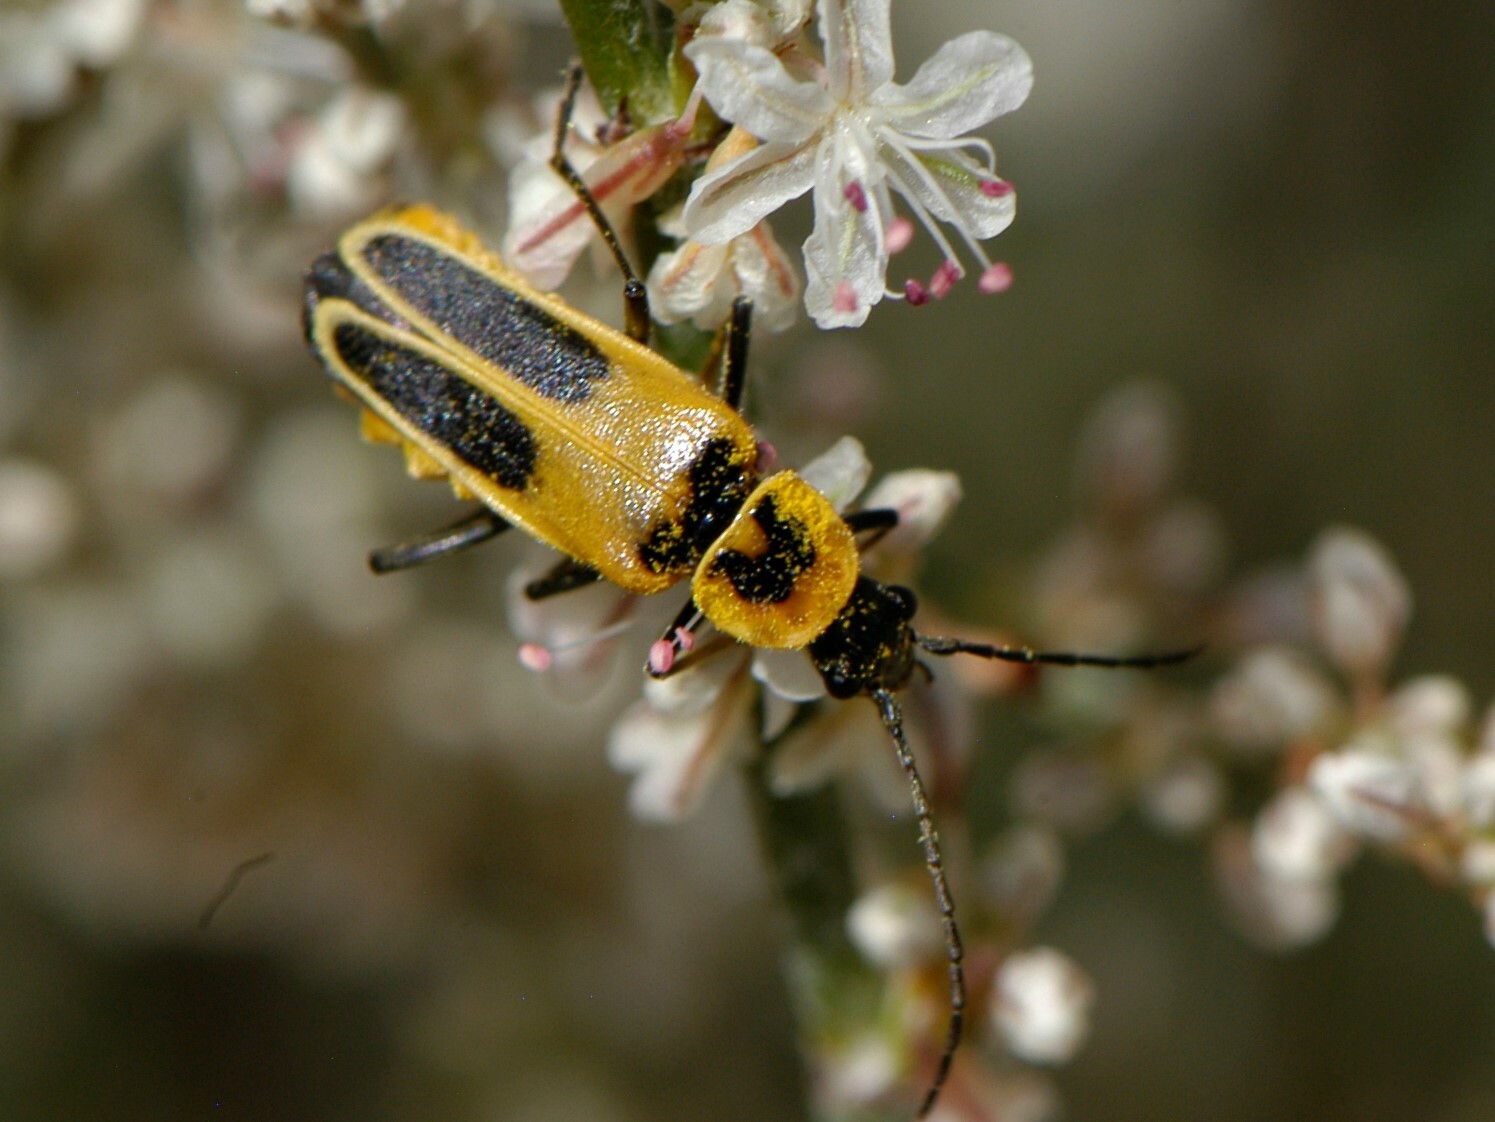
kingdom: Animalia
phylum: Arthropoda
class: Insecta
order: Coleoptera
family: Cantharidae
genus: Chauliognathus
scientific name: Chauliognathus lewisi
